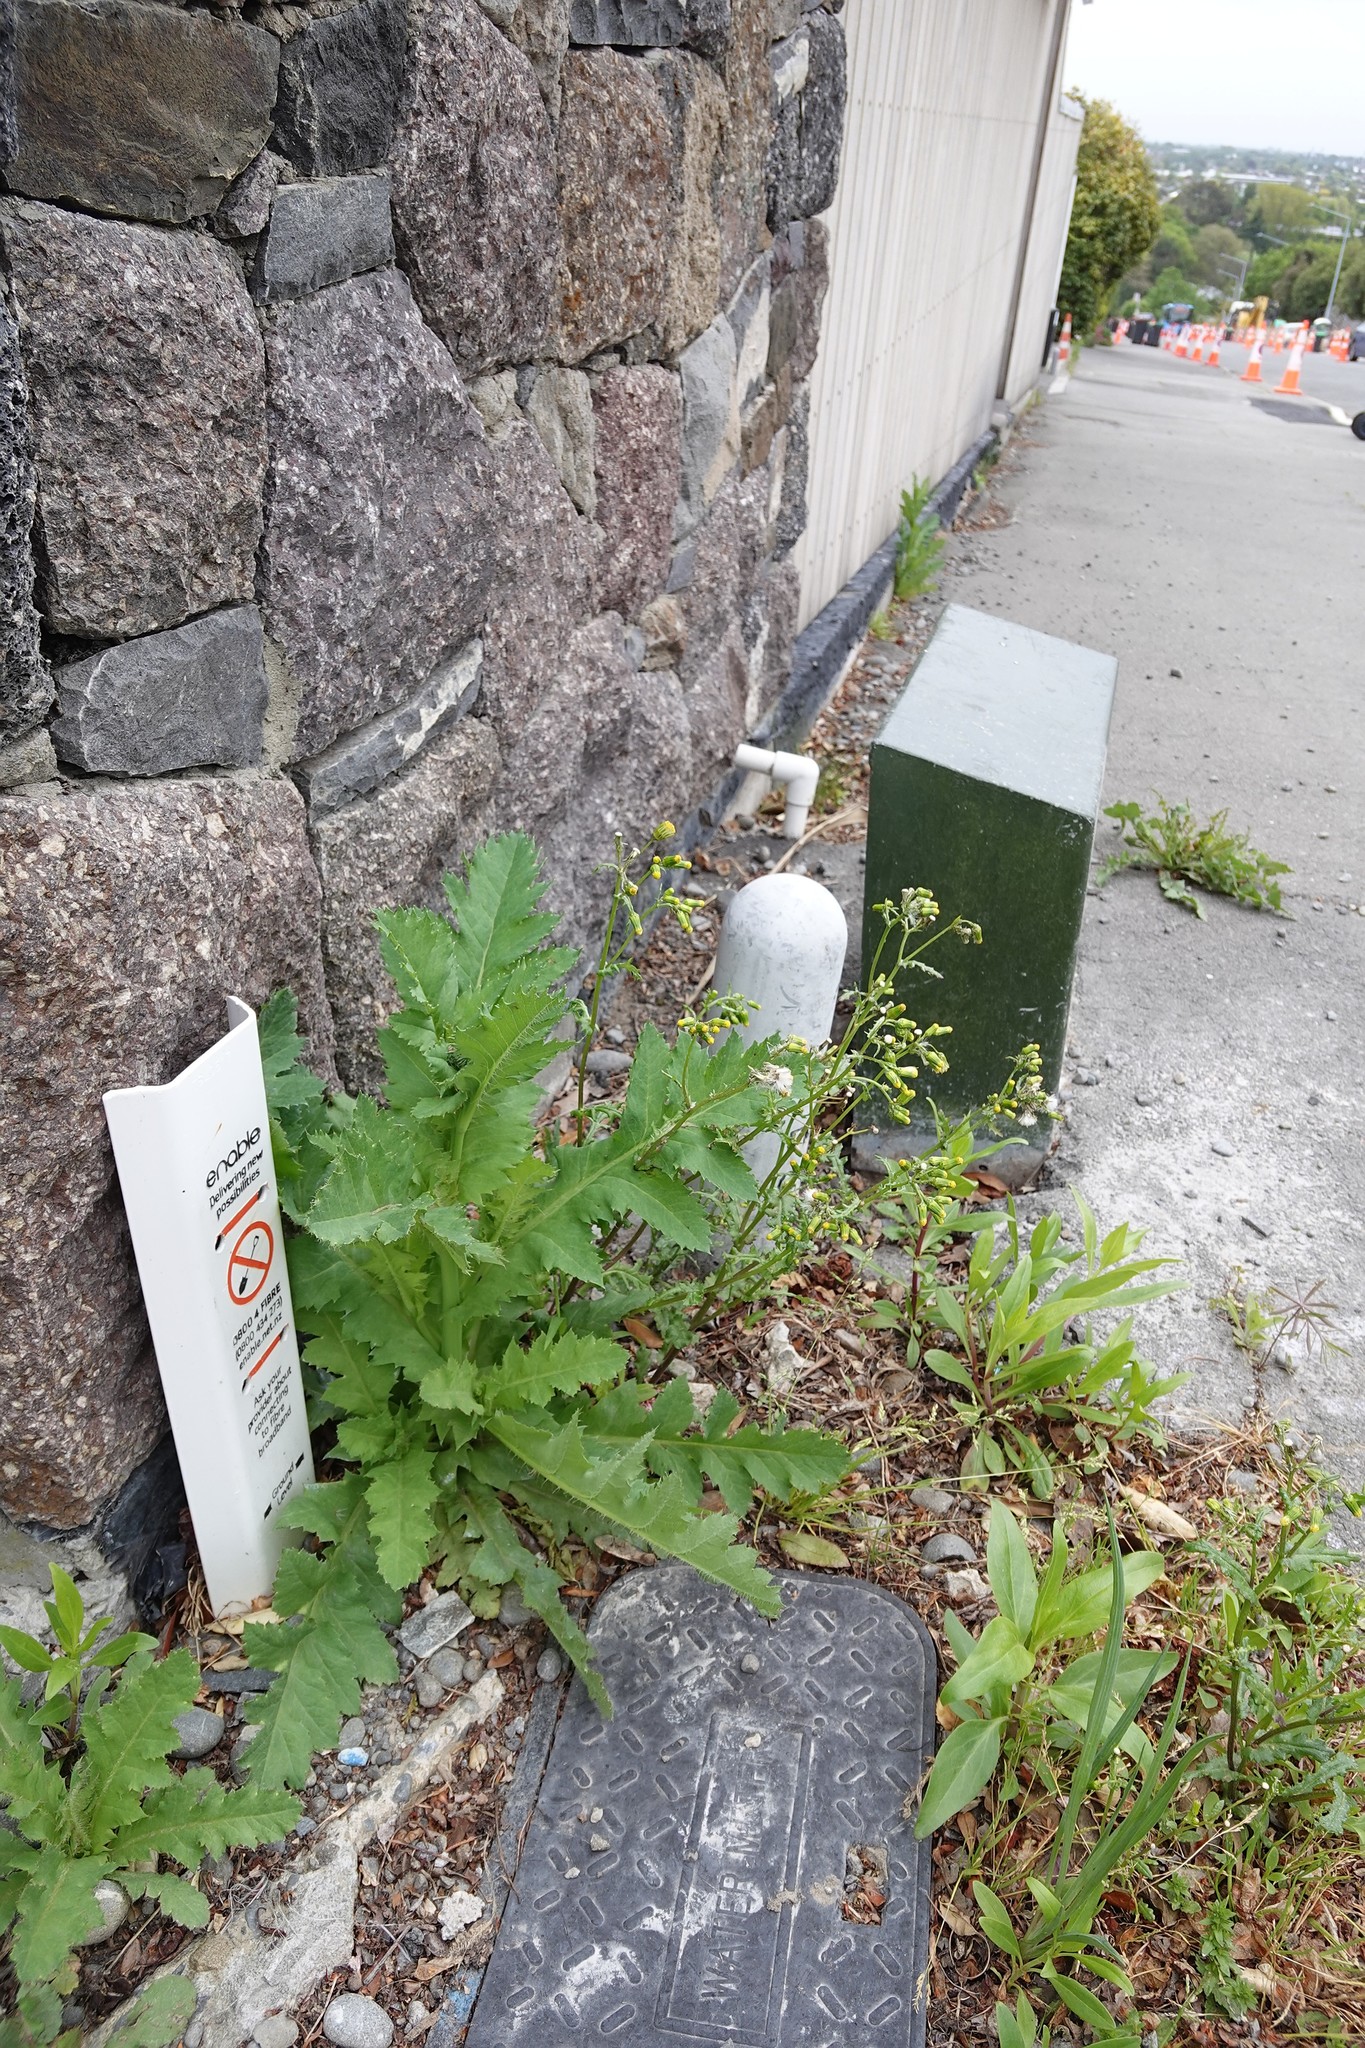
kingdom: Plantae
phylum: Tracheophyta
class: Magnoliopsida
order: Ranunculales
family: Papaveraceae
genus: Papaver
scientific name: Papaver somniferum
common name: Opium poppy
